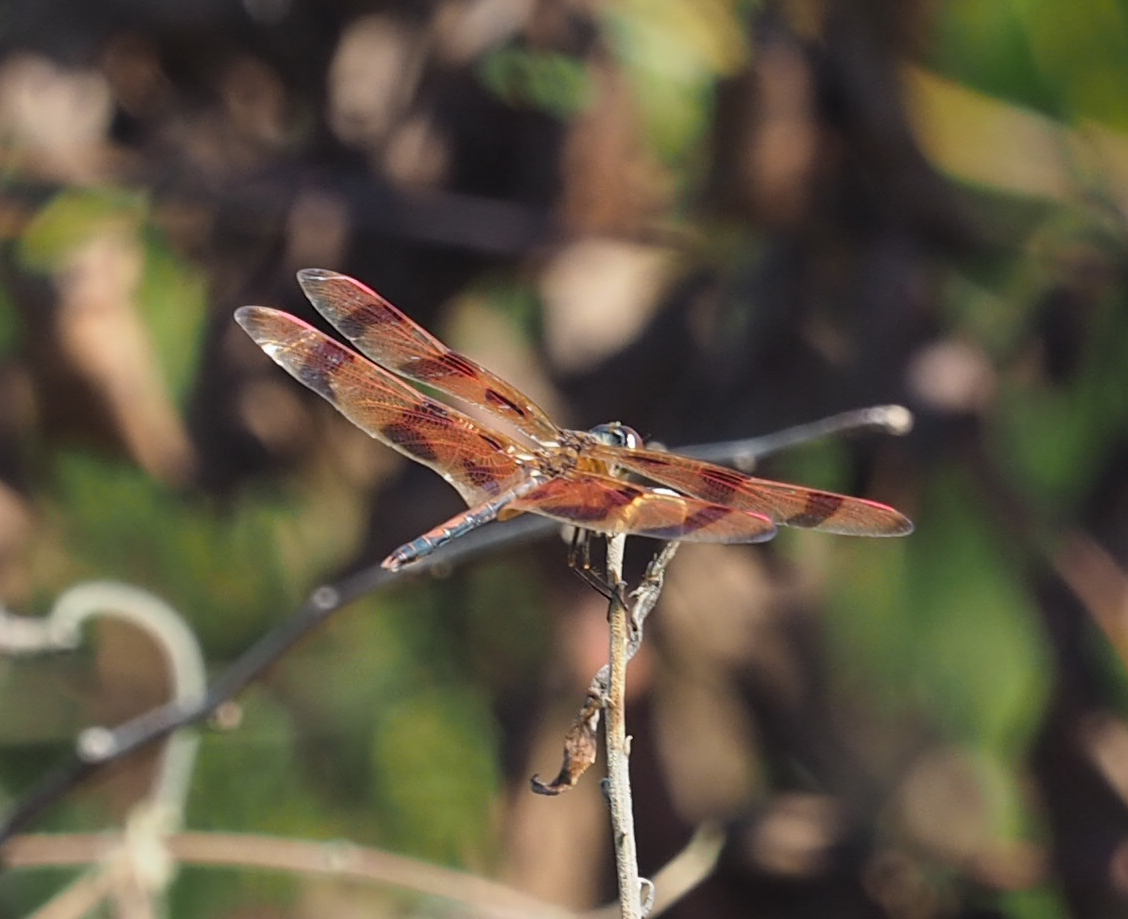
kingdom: Animalia
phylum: Arthropoda
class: Insecta
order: Odonata
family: Libellulidae
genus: Celithemis
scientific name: Celithemis eponina
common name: Halloween pennant
